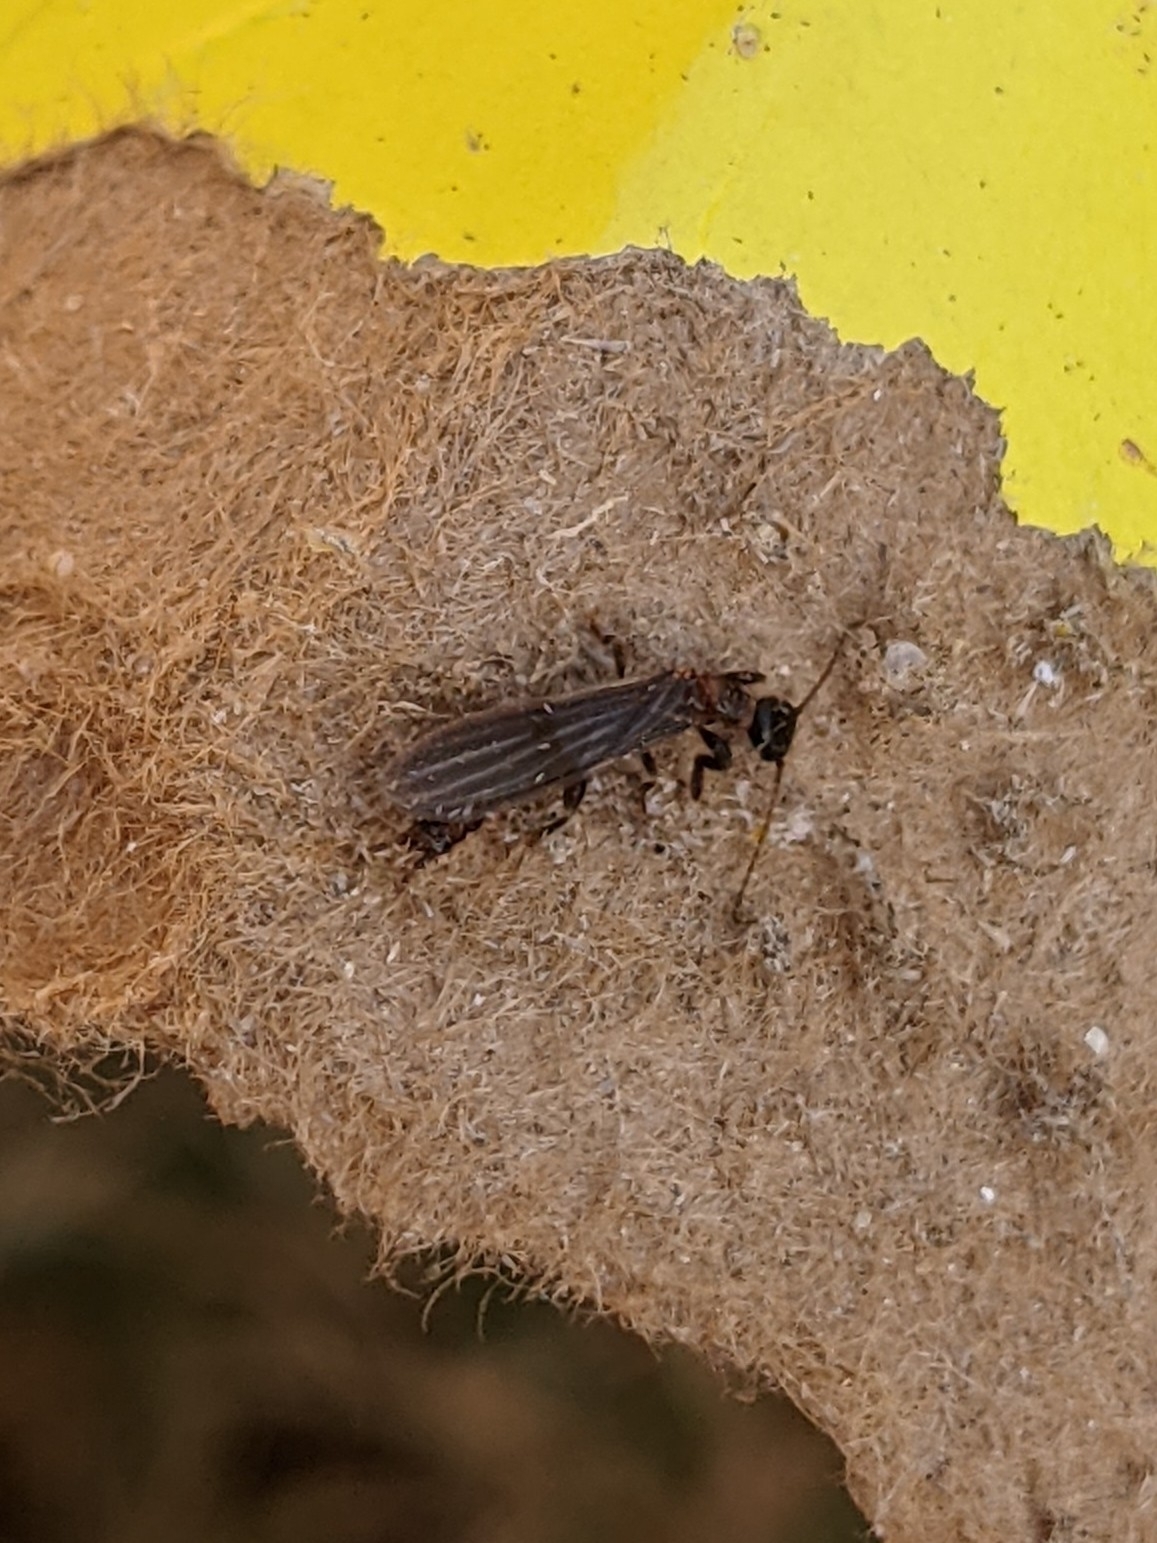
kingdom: Animalia
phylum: Arthropoda
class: Insecta
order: Embioptera
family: Oligotomidae
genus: Oligotoma
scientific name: Oligotoma nigra
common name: Black webspinner
